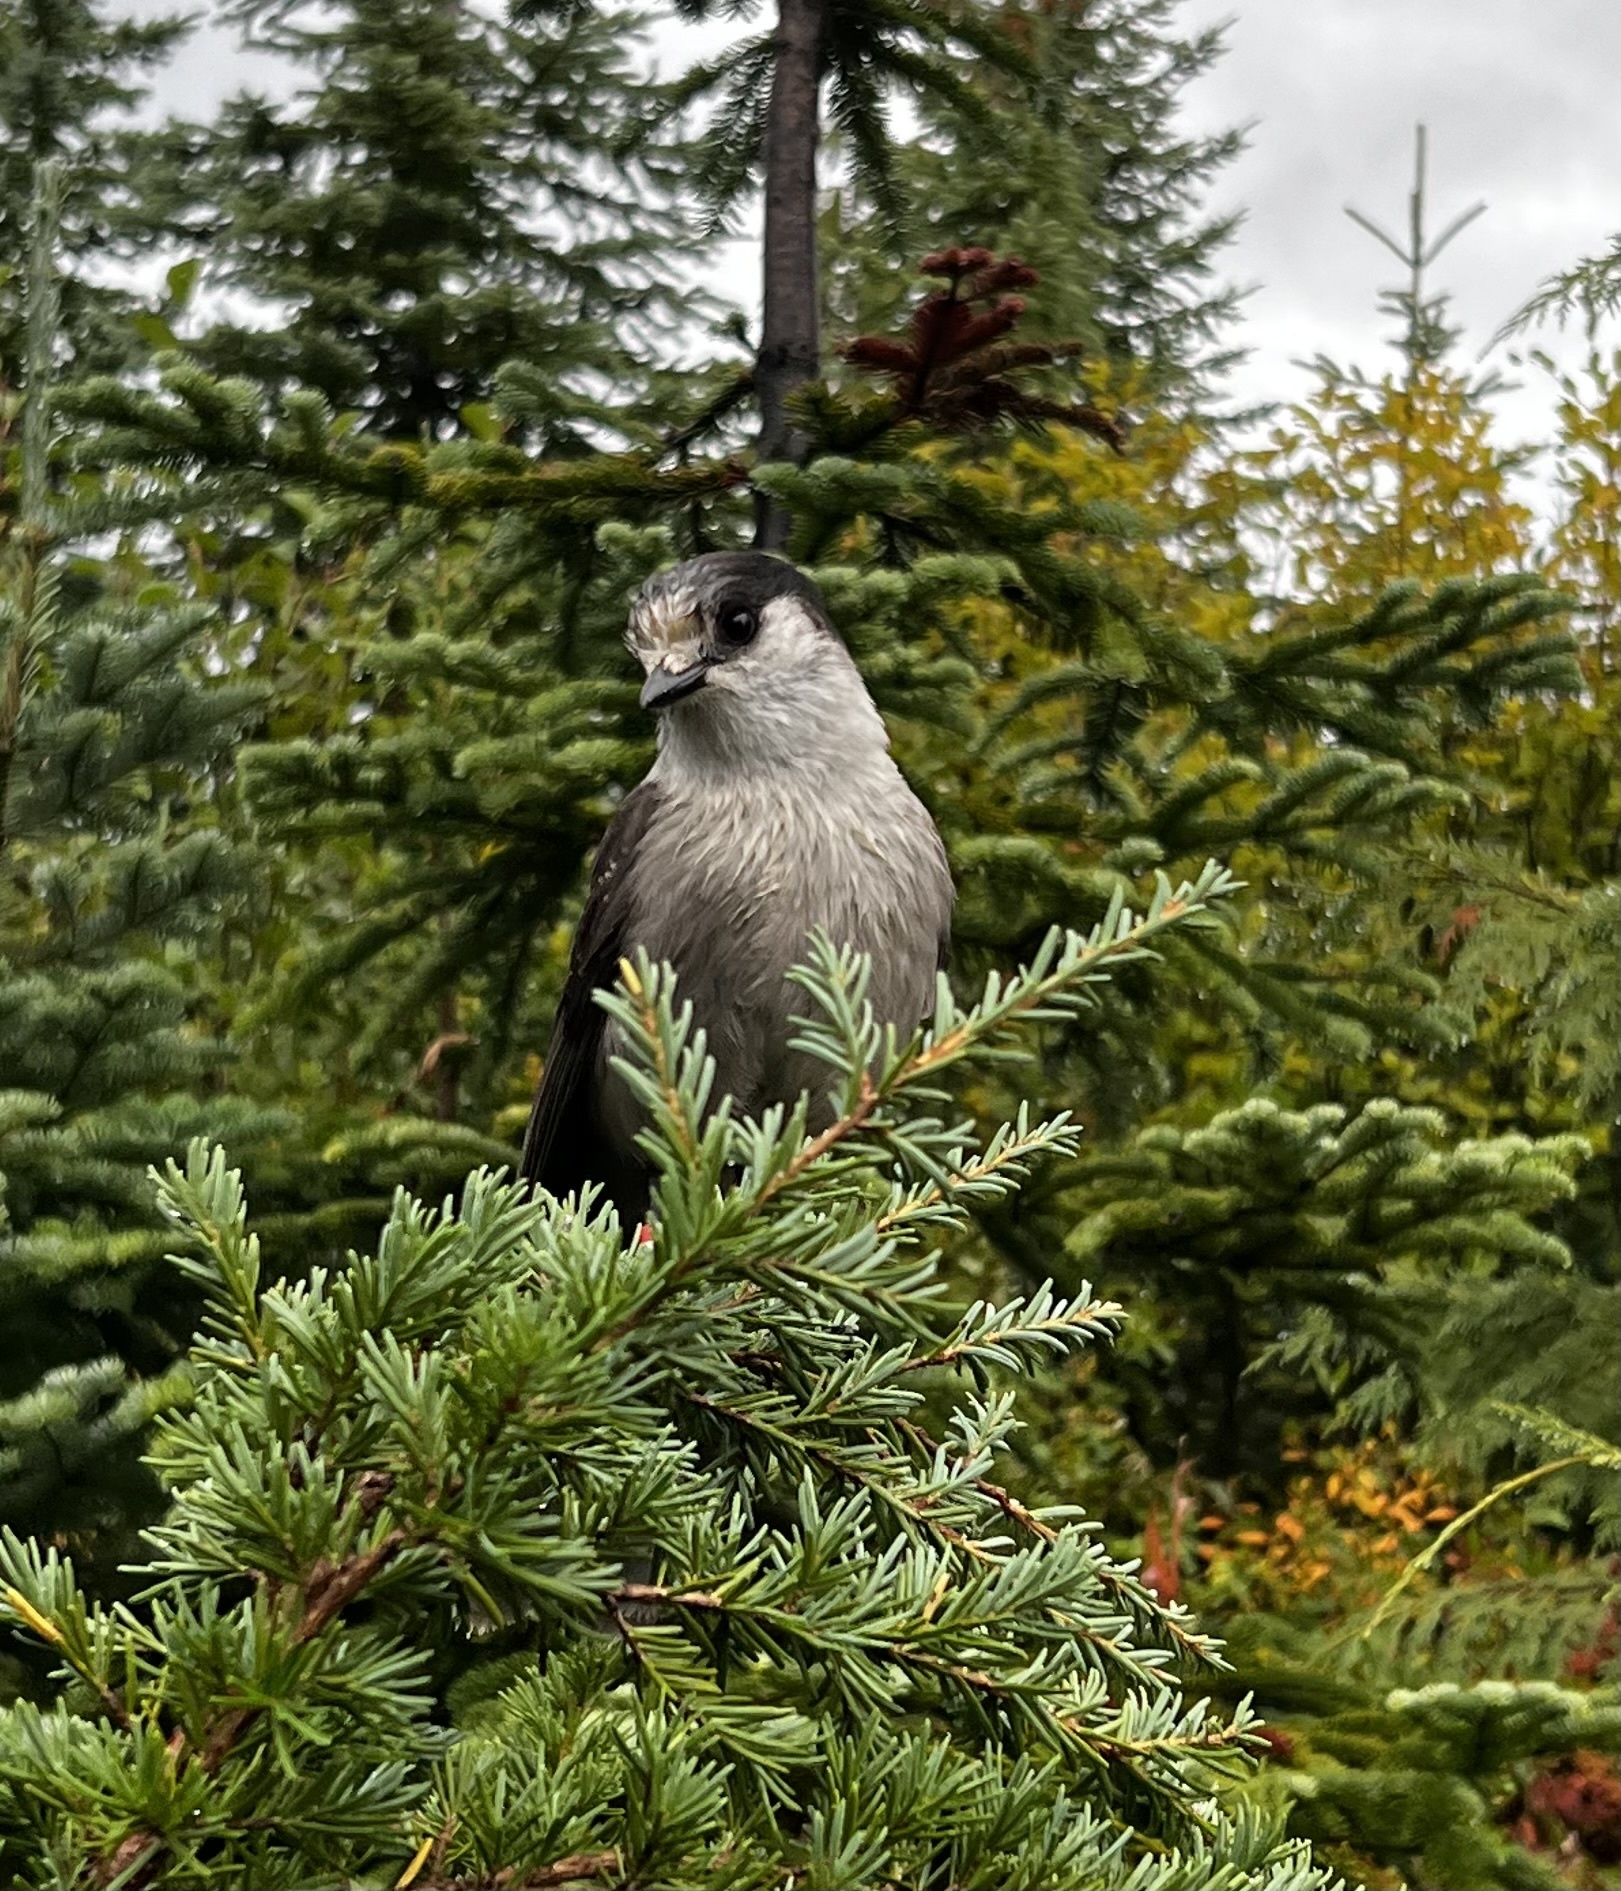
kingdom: Animalia
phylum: Chordata
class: Aves
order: Passeriformes
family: Corvidae
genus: Perisoreus
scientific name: Perisoreus canadensis
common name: Gray jay
